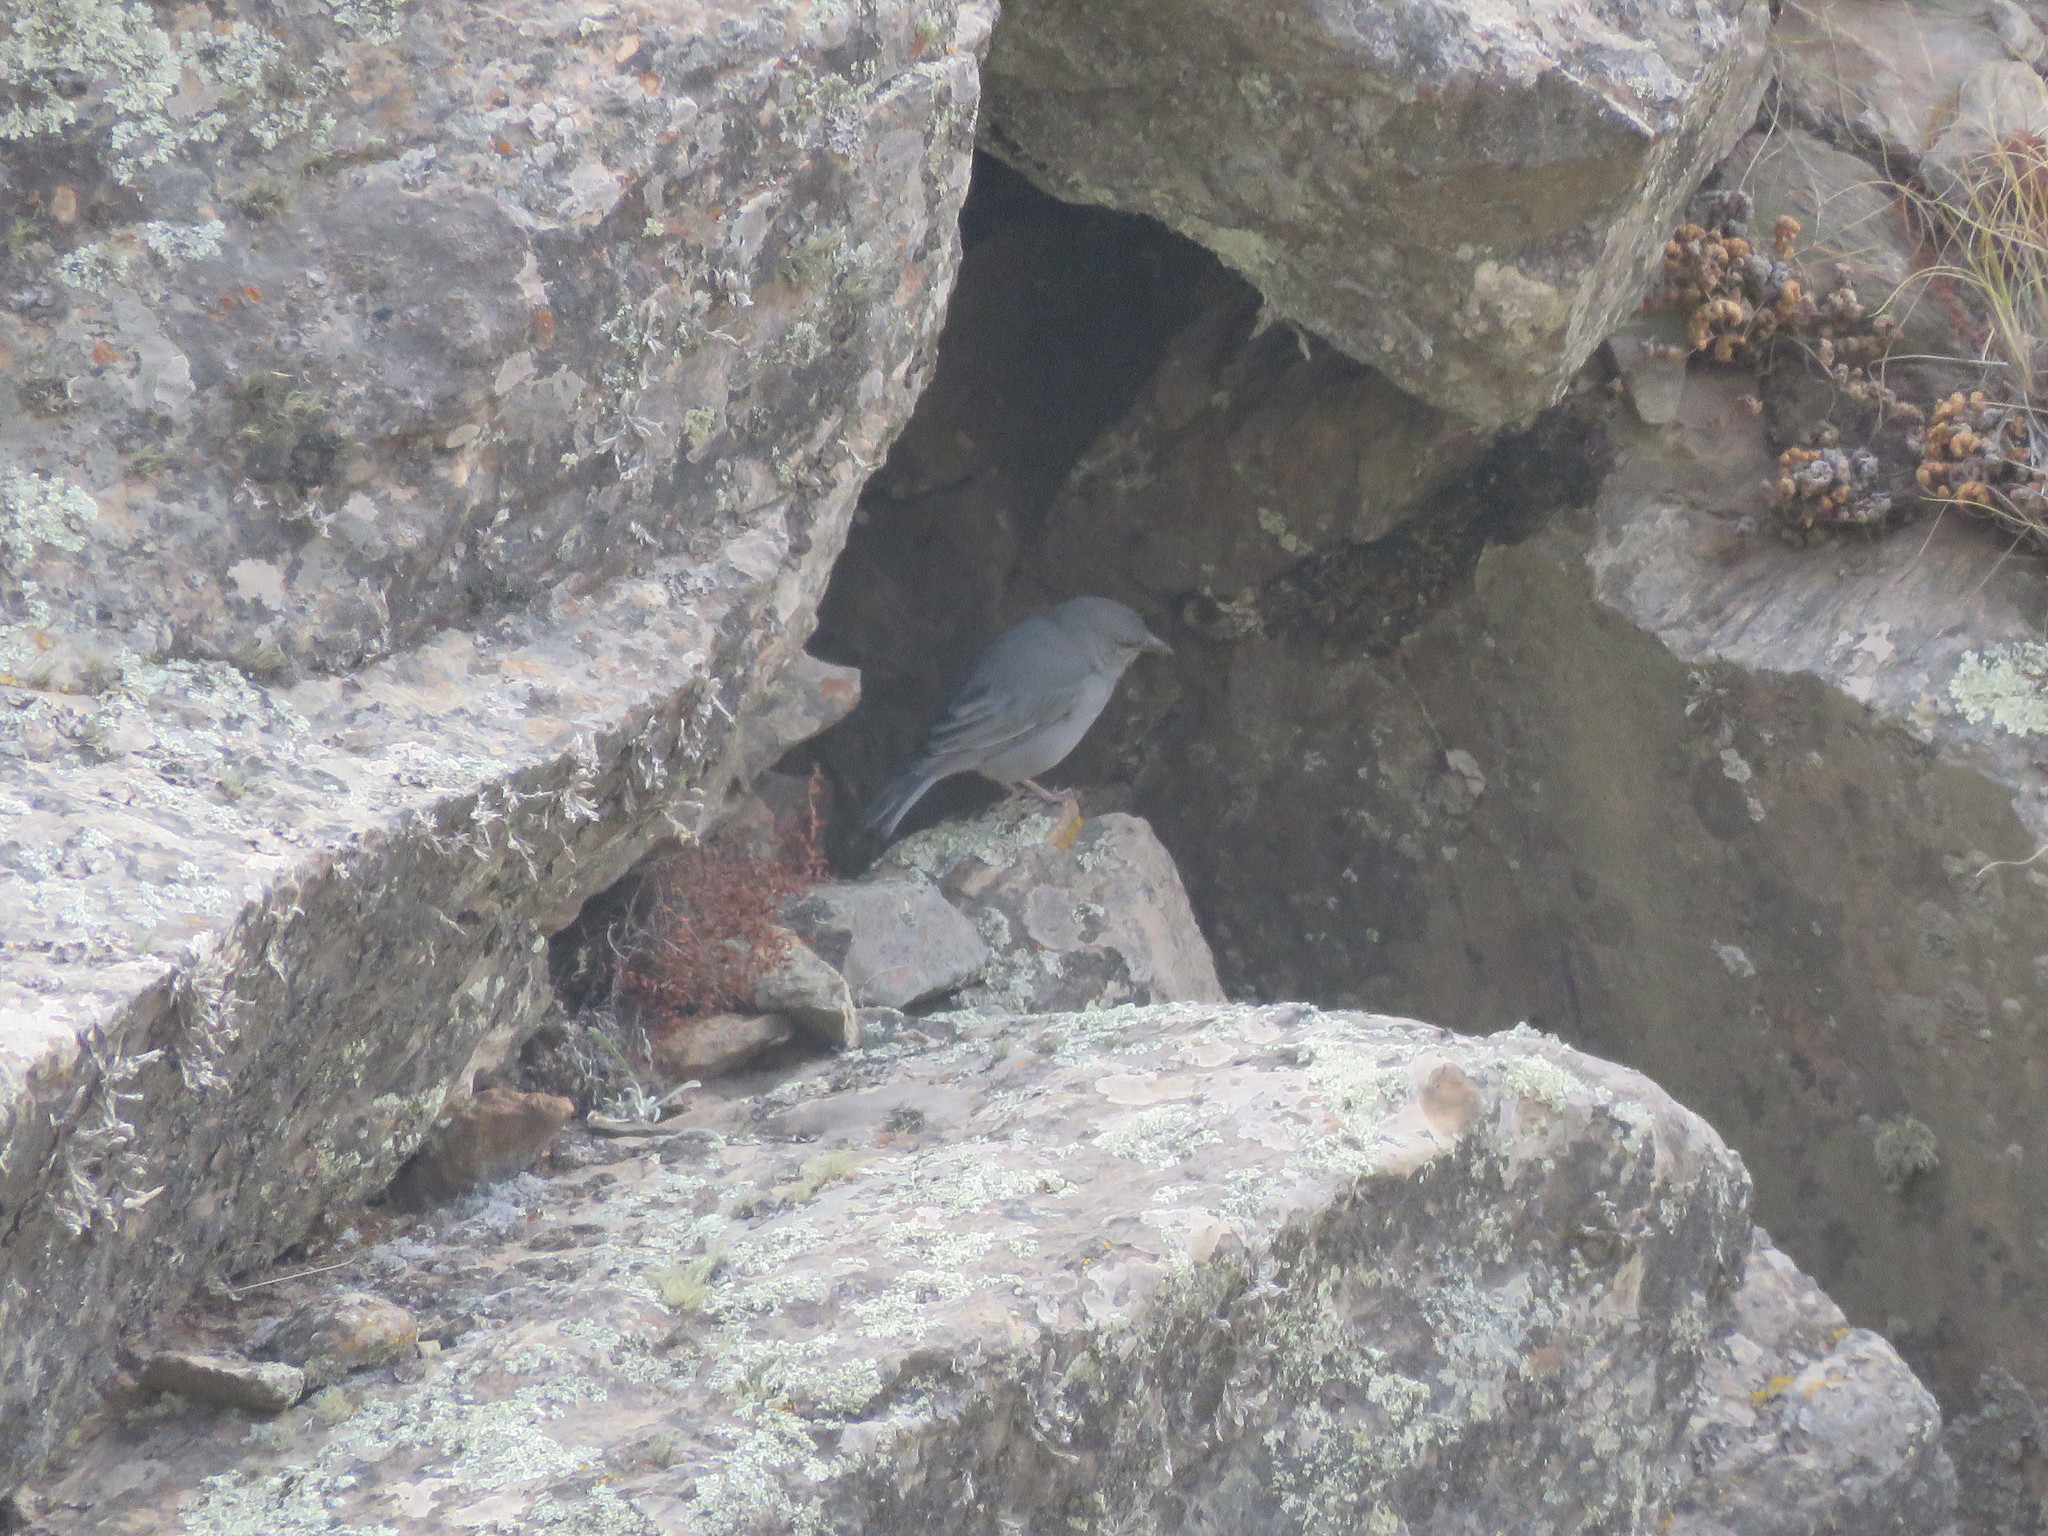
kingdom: Animalia
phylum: Chordata
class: Aves
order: Passeriformes
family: Thraupidae
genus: Idiopsar
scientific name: Idiopsar brachyurus
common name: Short-tailed finch
